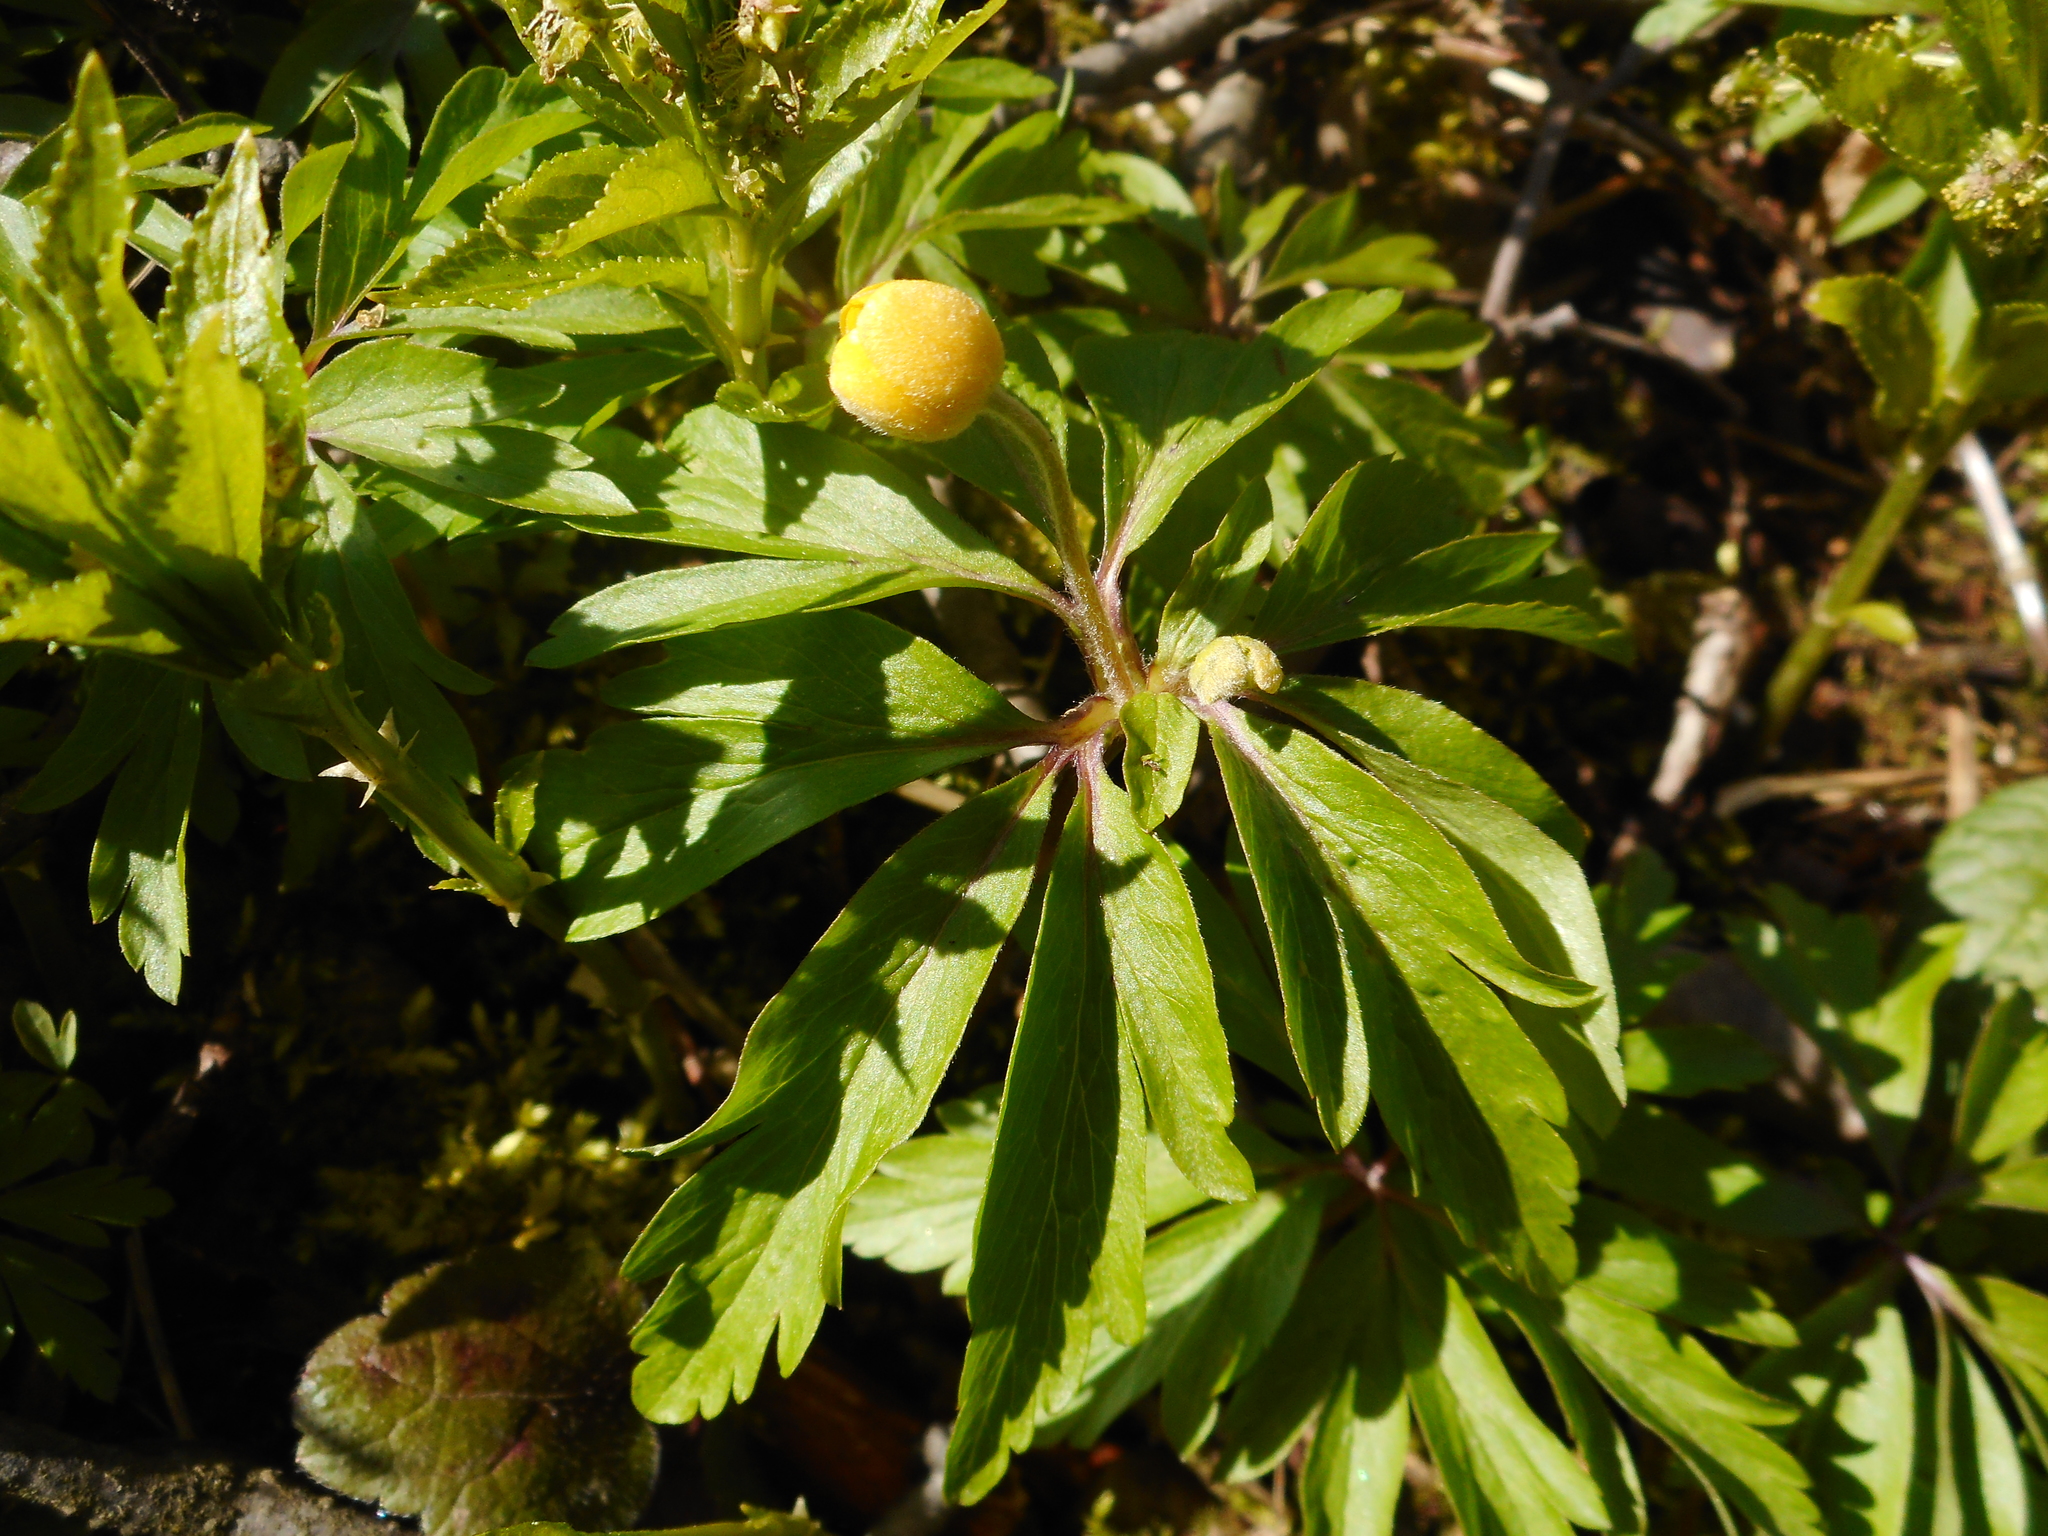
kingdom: Plantae
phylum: Tracheophyta
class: Magnoliopsida
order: Ranunculales
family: Ranunculaceae
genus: Anemone
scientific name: Anemone ranunculoides
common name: Yellow anemone
